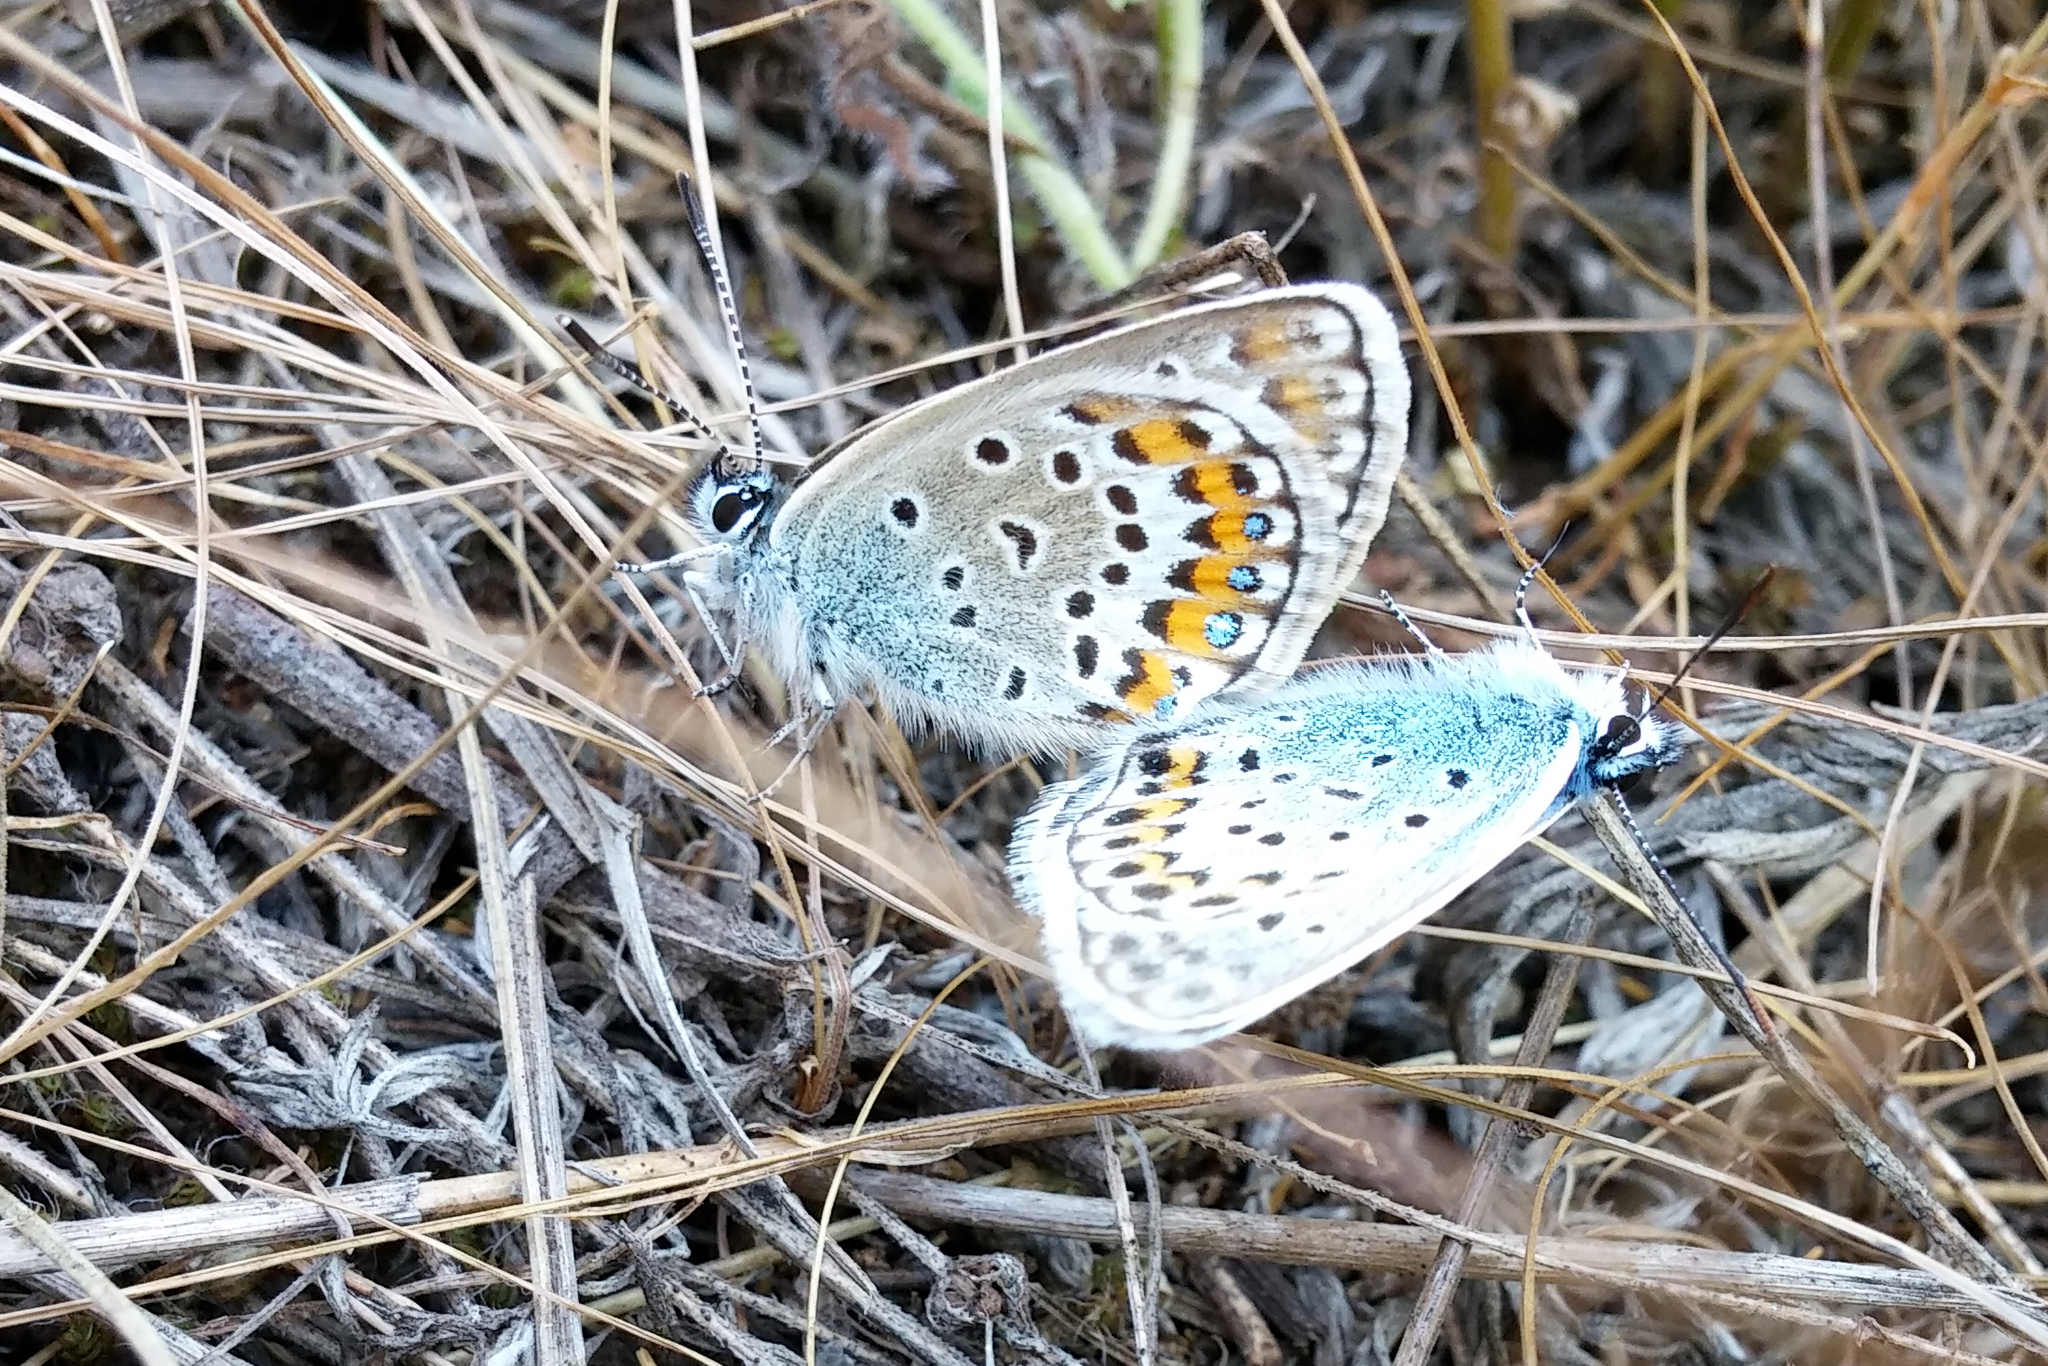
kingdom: Animalia
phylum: Arthropoda
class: Insecta
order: Lepidoptera
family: Lycaenidae
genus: Plebejus
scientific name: Plebejus argus
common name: Silver-studded blue
